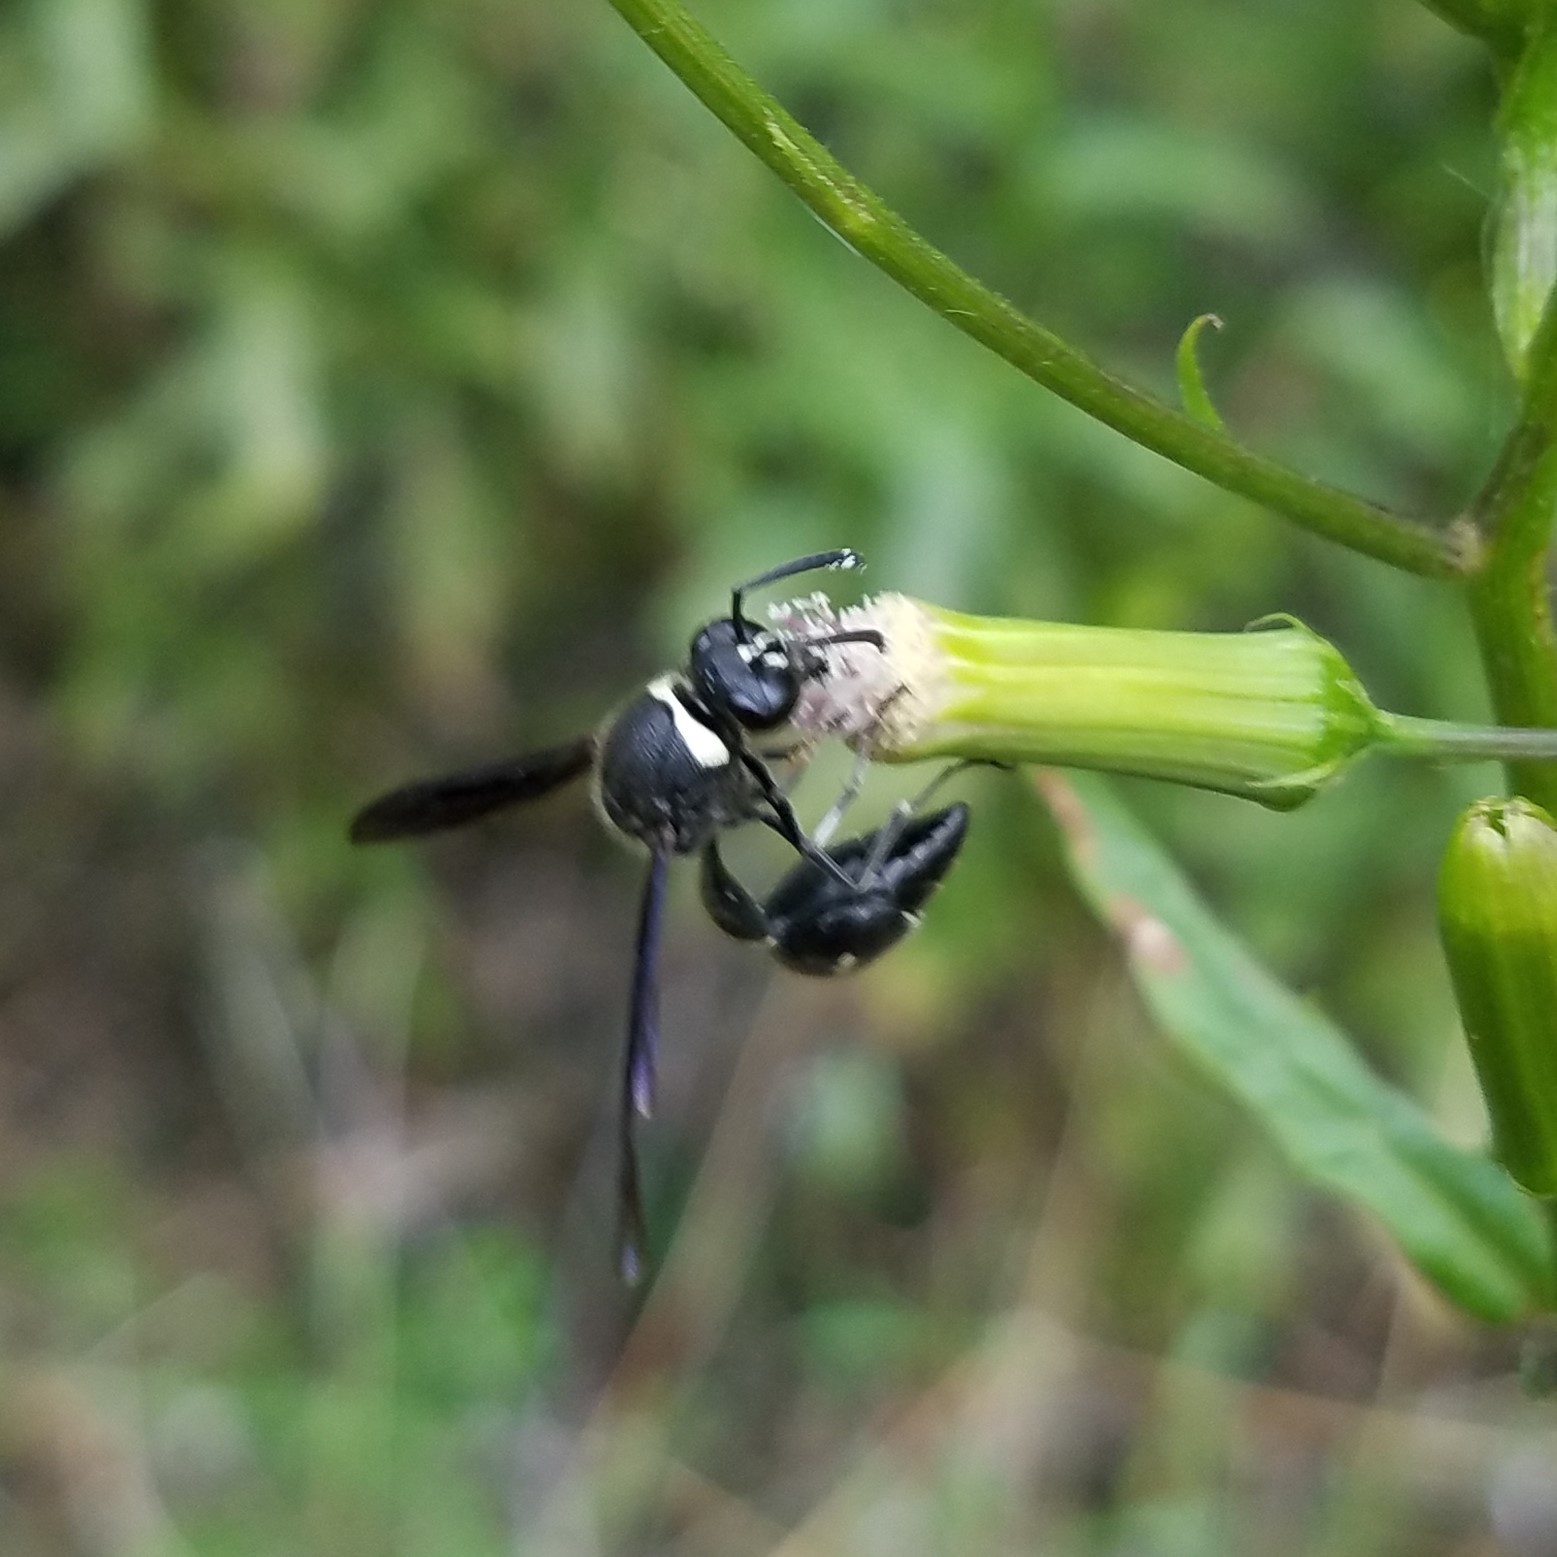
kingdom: Animalia
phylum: Arthropoda
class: Insecta
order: Hymenoptera
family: Vespidae
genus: Eumenes
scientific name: Eumenes fraternus
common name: Fraternal potter wasp
